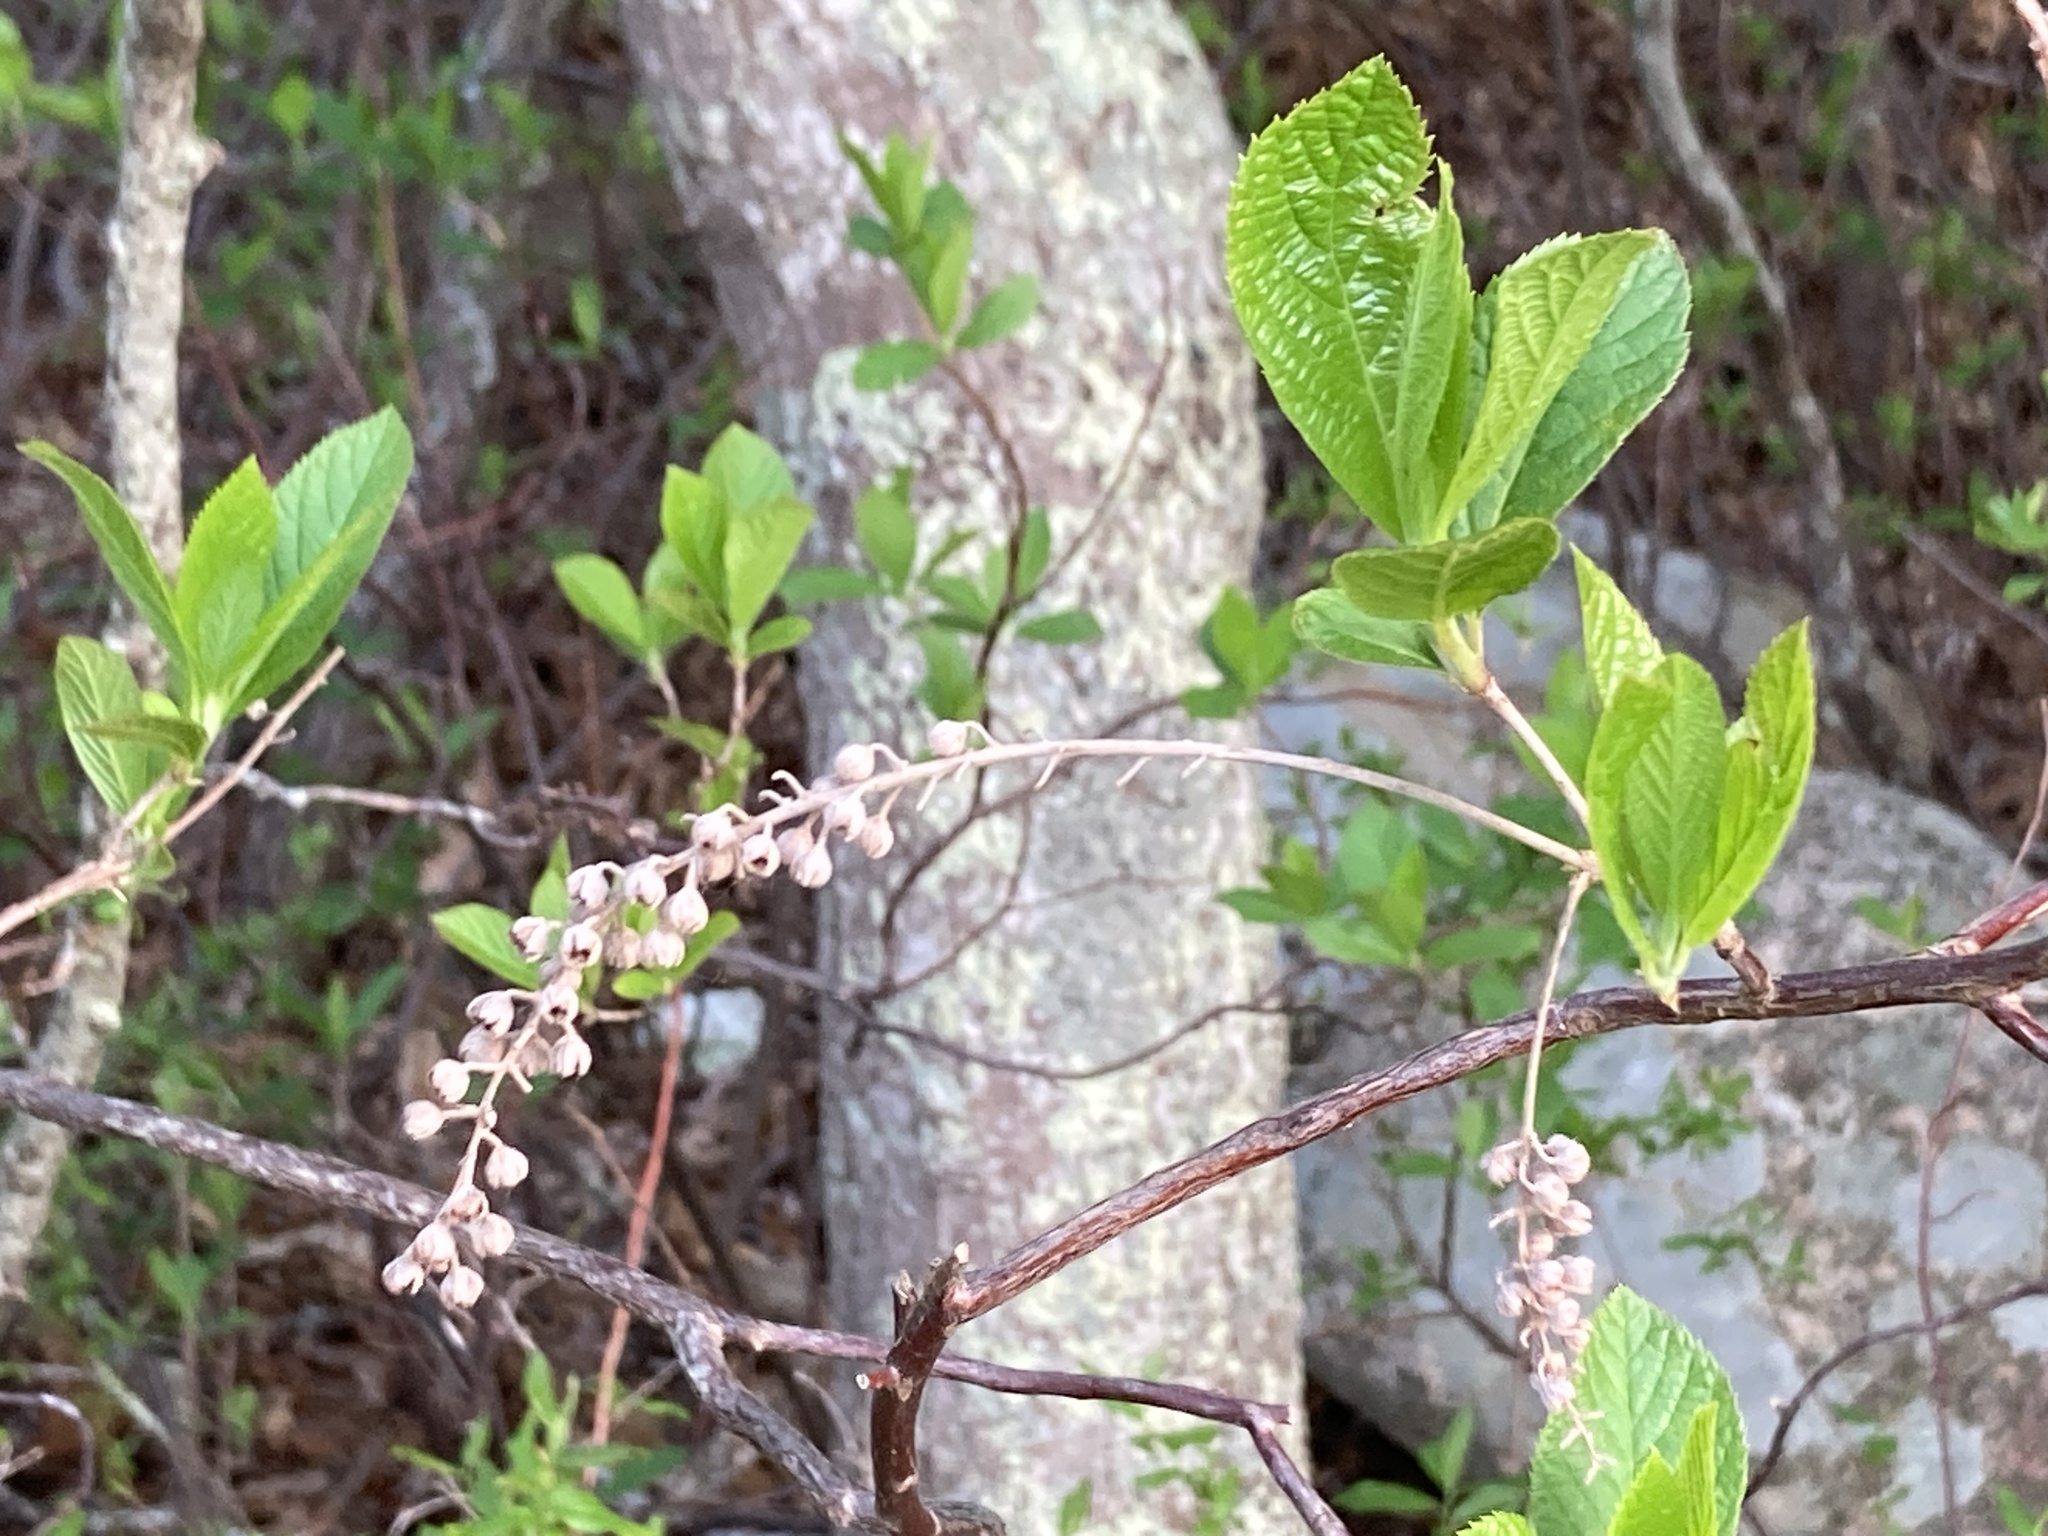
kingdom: Plantae
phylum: Tracheophyta
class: Magnoliopsida
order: Ericales
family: Clethraceae
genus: Clethra
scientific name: Clethra alnifolia
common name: Sweet pepperbush
